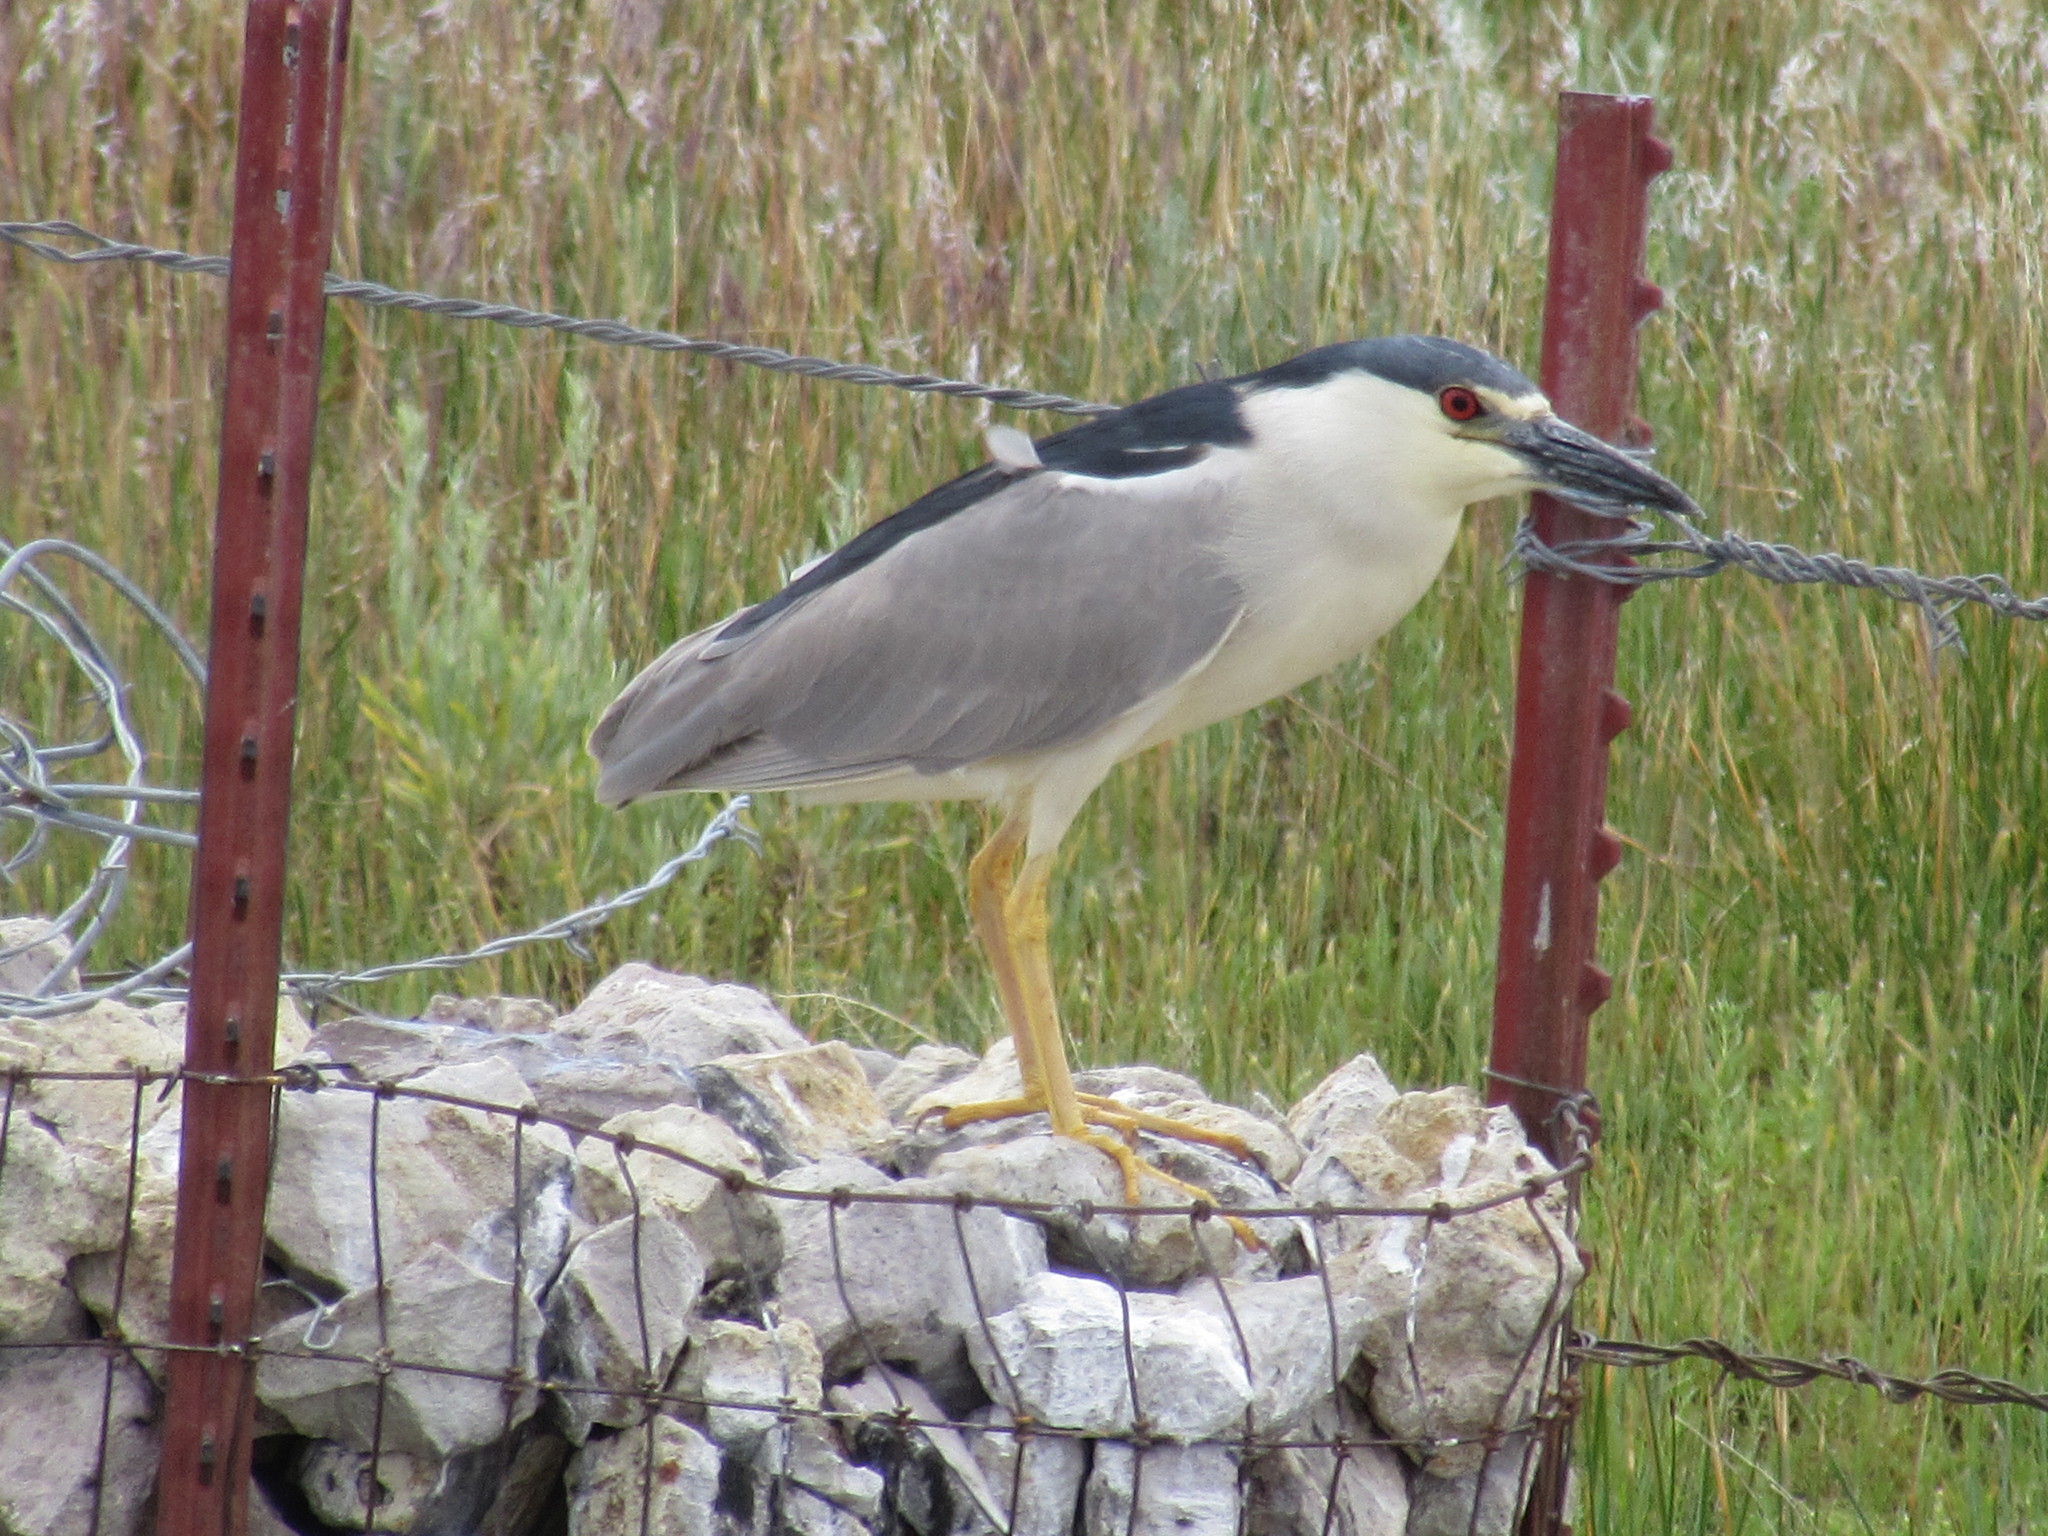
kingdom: Animalia
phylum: Chordata
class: Aves
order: Pelecaniformes
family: Ardeidae
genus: Nycticorax
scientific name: Nycticorax nycticorax
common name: Black-crowned night heron
